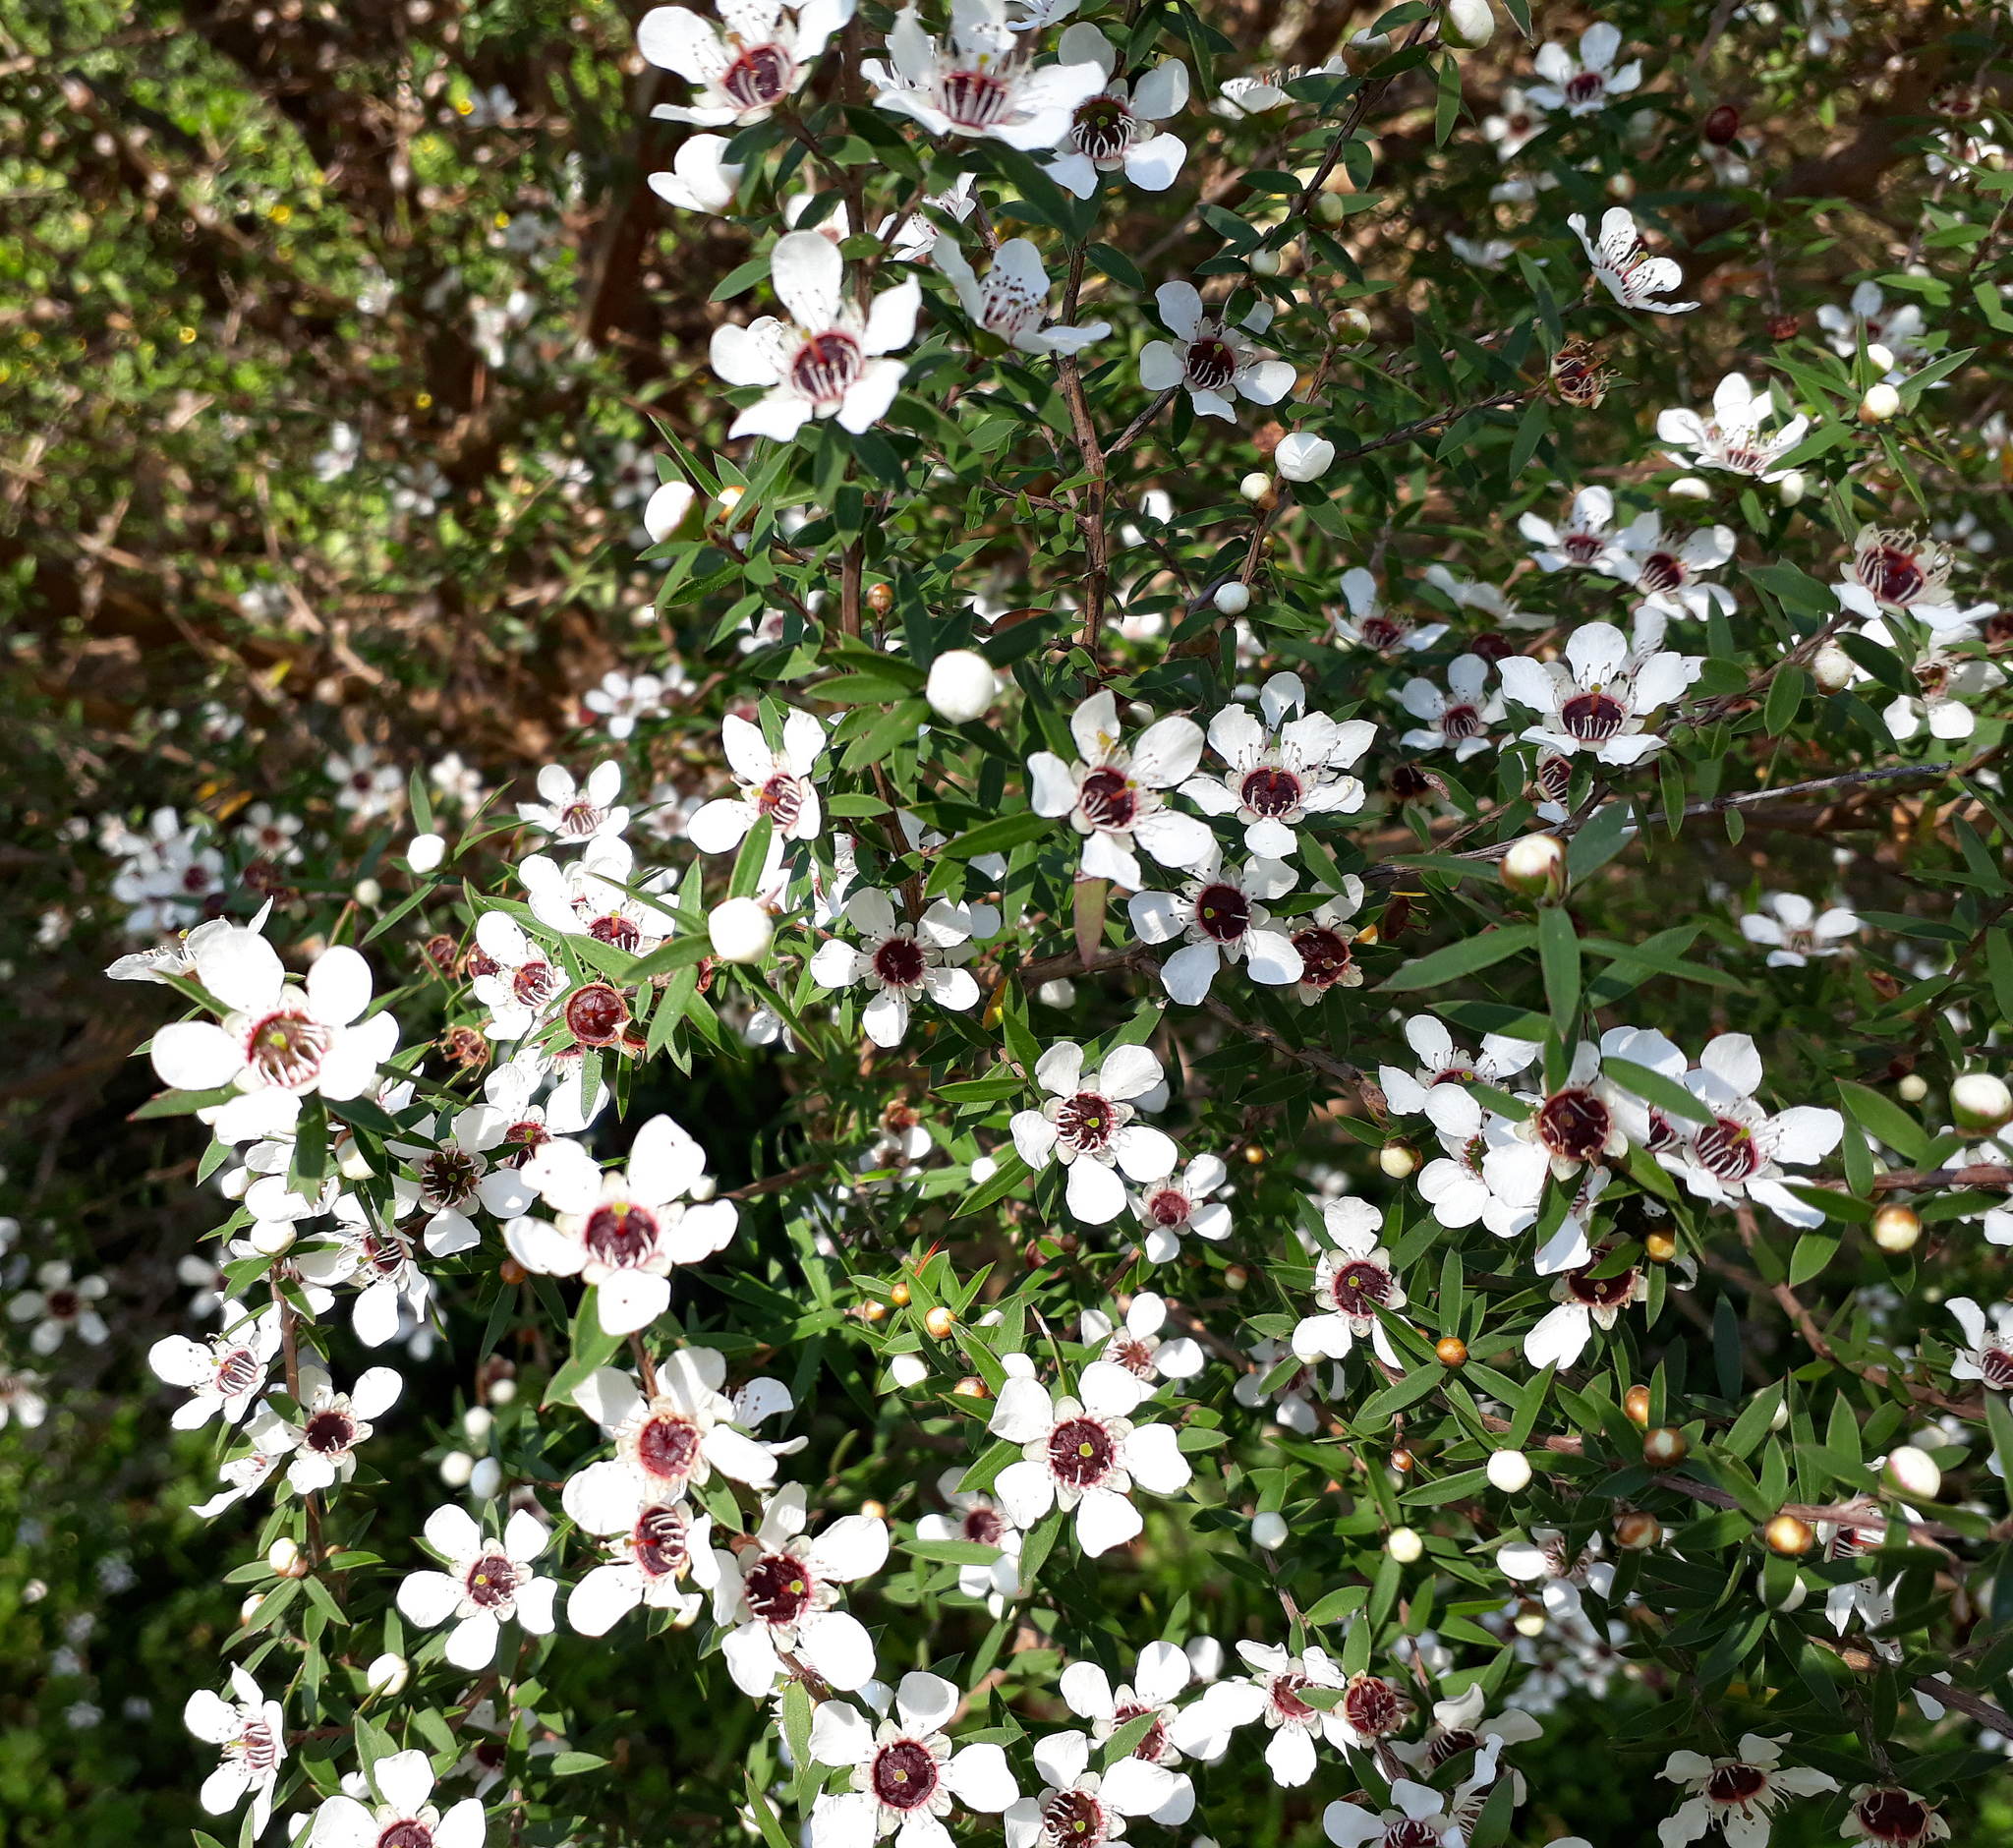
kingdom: Plantae
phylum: Tracheophyta
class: Magnoliopsida
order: Myrtales
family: Myrtaceae
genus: Leptospermum
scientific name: Leptospermum scoparium
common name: Broom tea-tree
